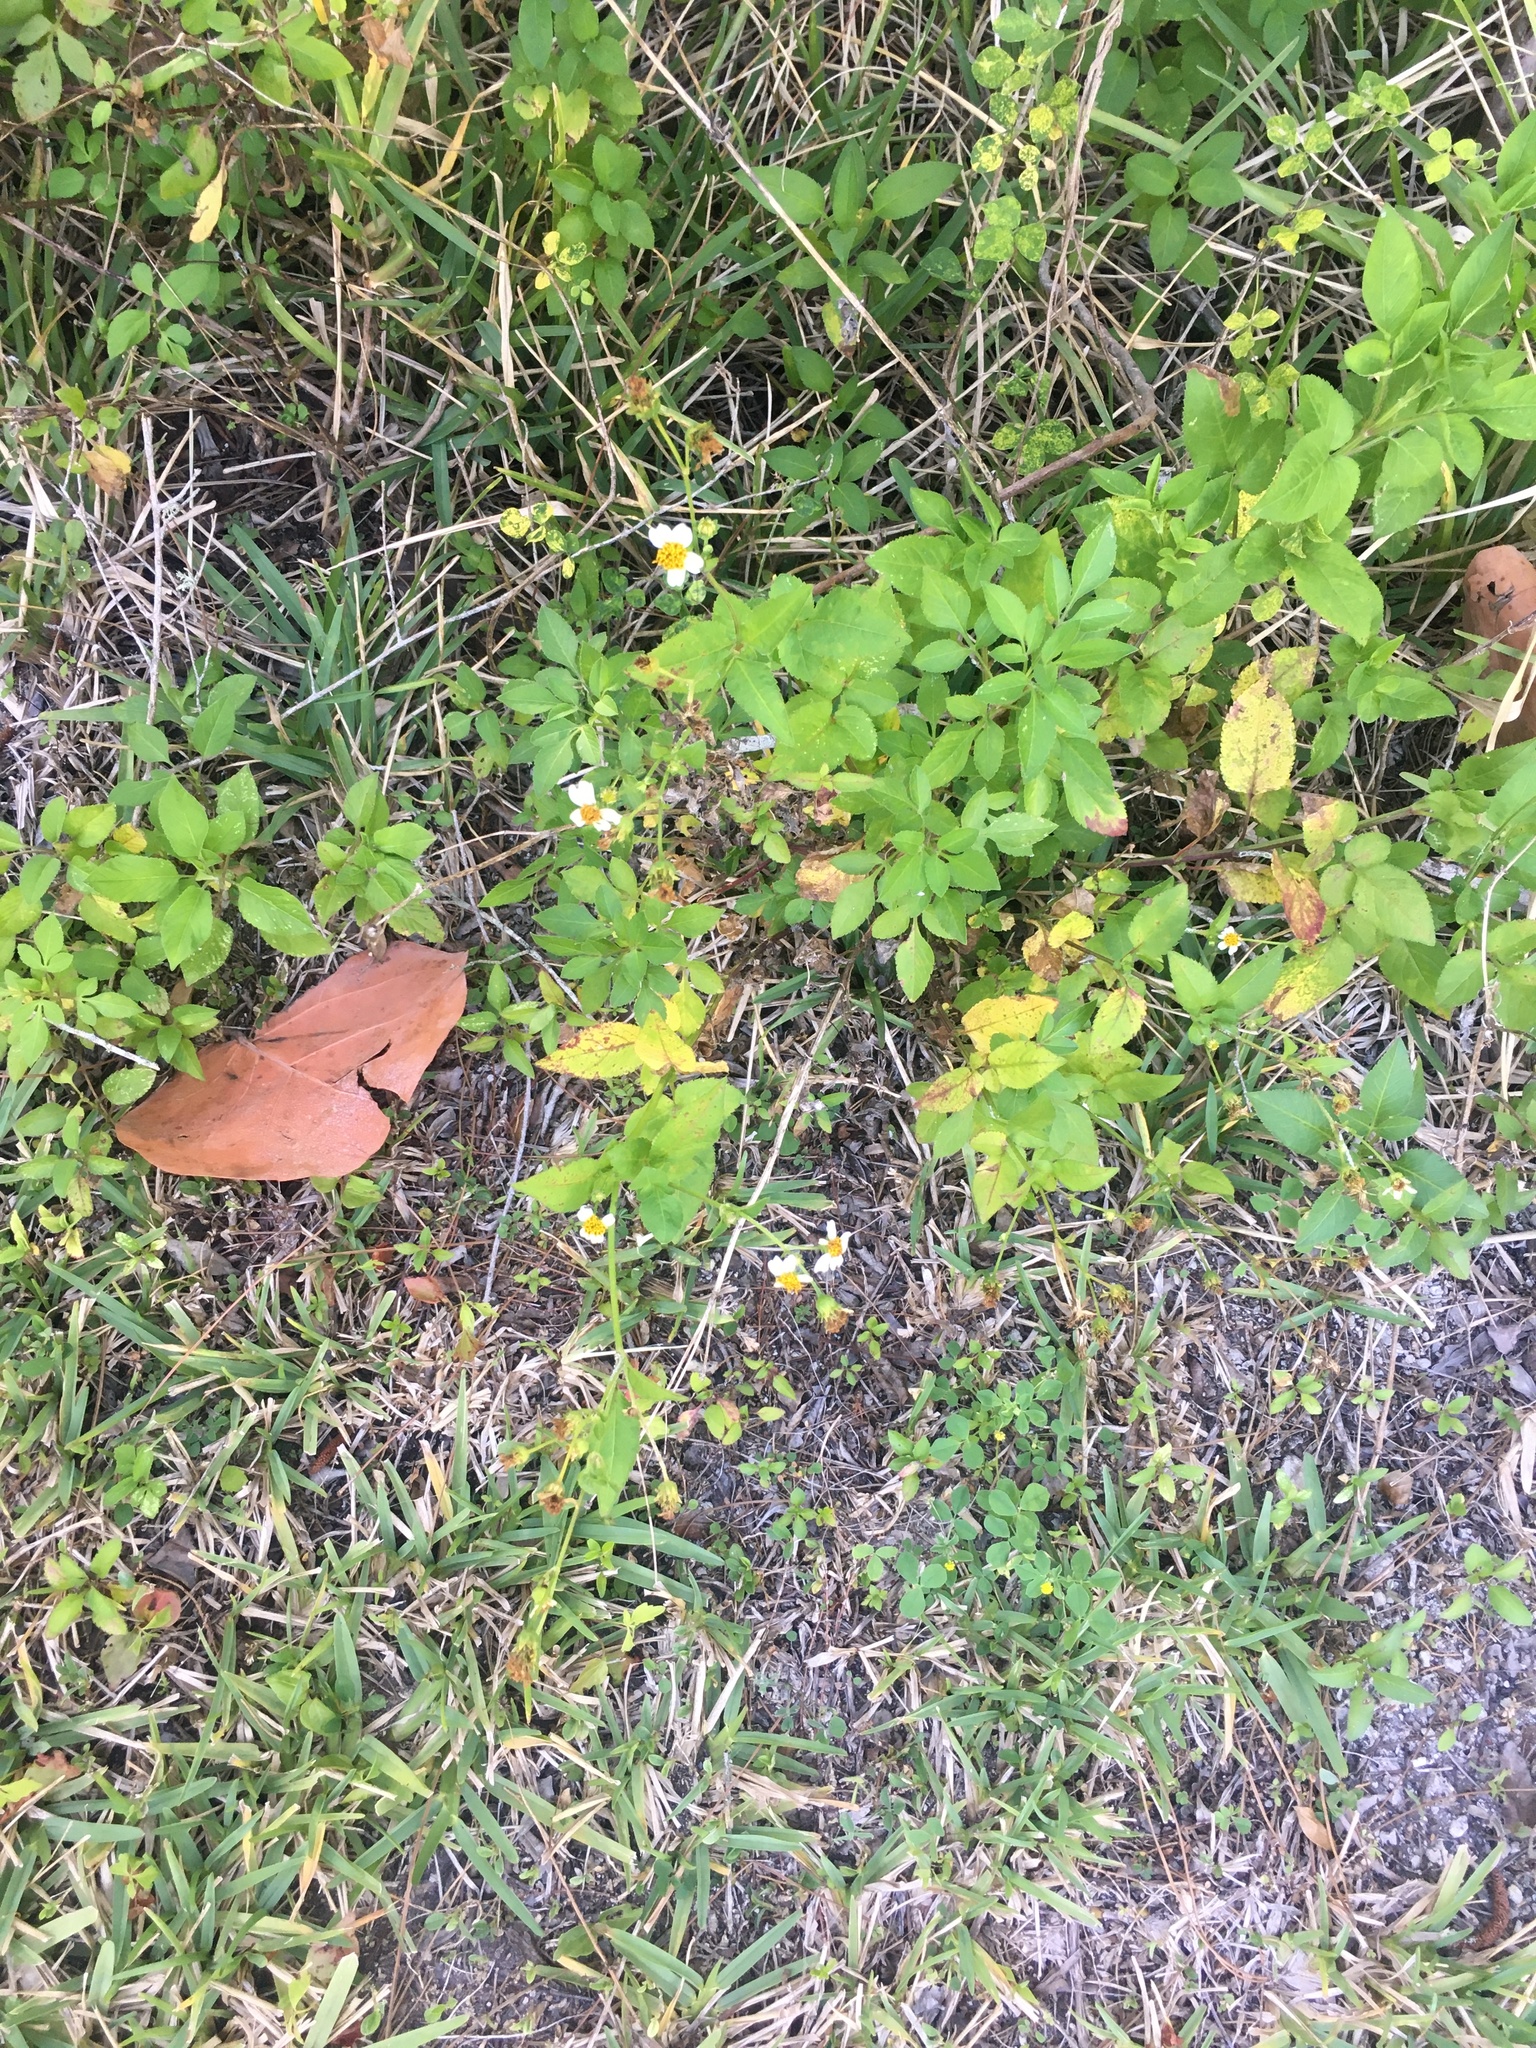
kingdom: Plantae
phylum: Tracheophyta
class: Magnoliopsida
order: Asterales
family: Asteraceae
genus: Bidens
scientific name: Bidens alba
